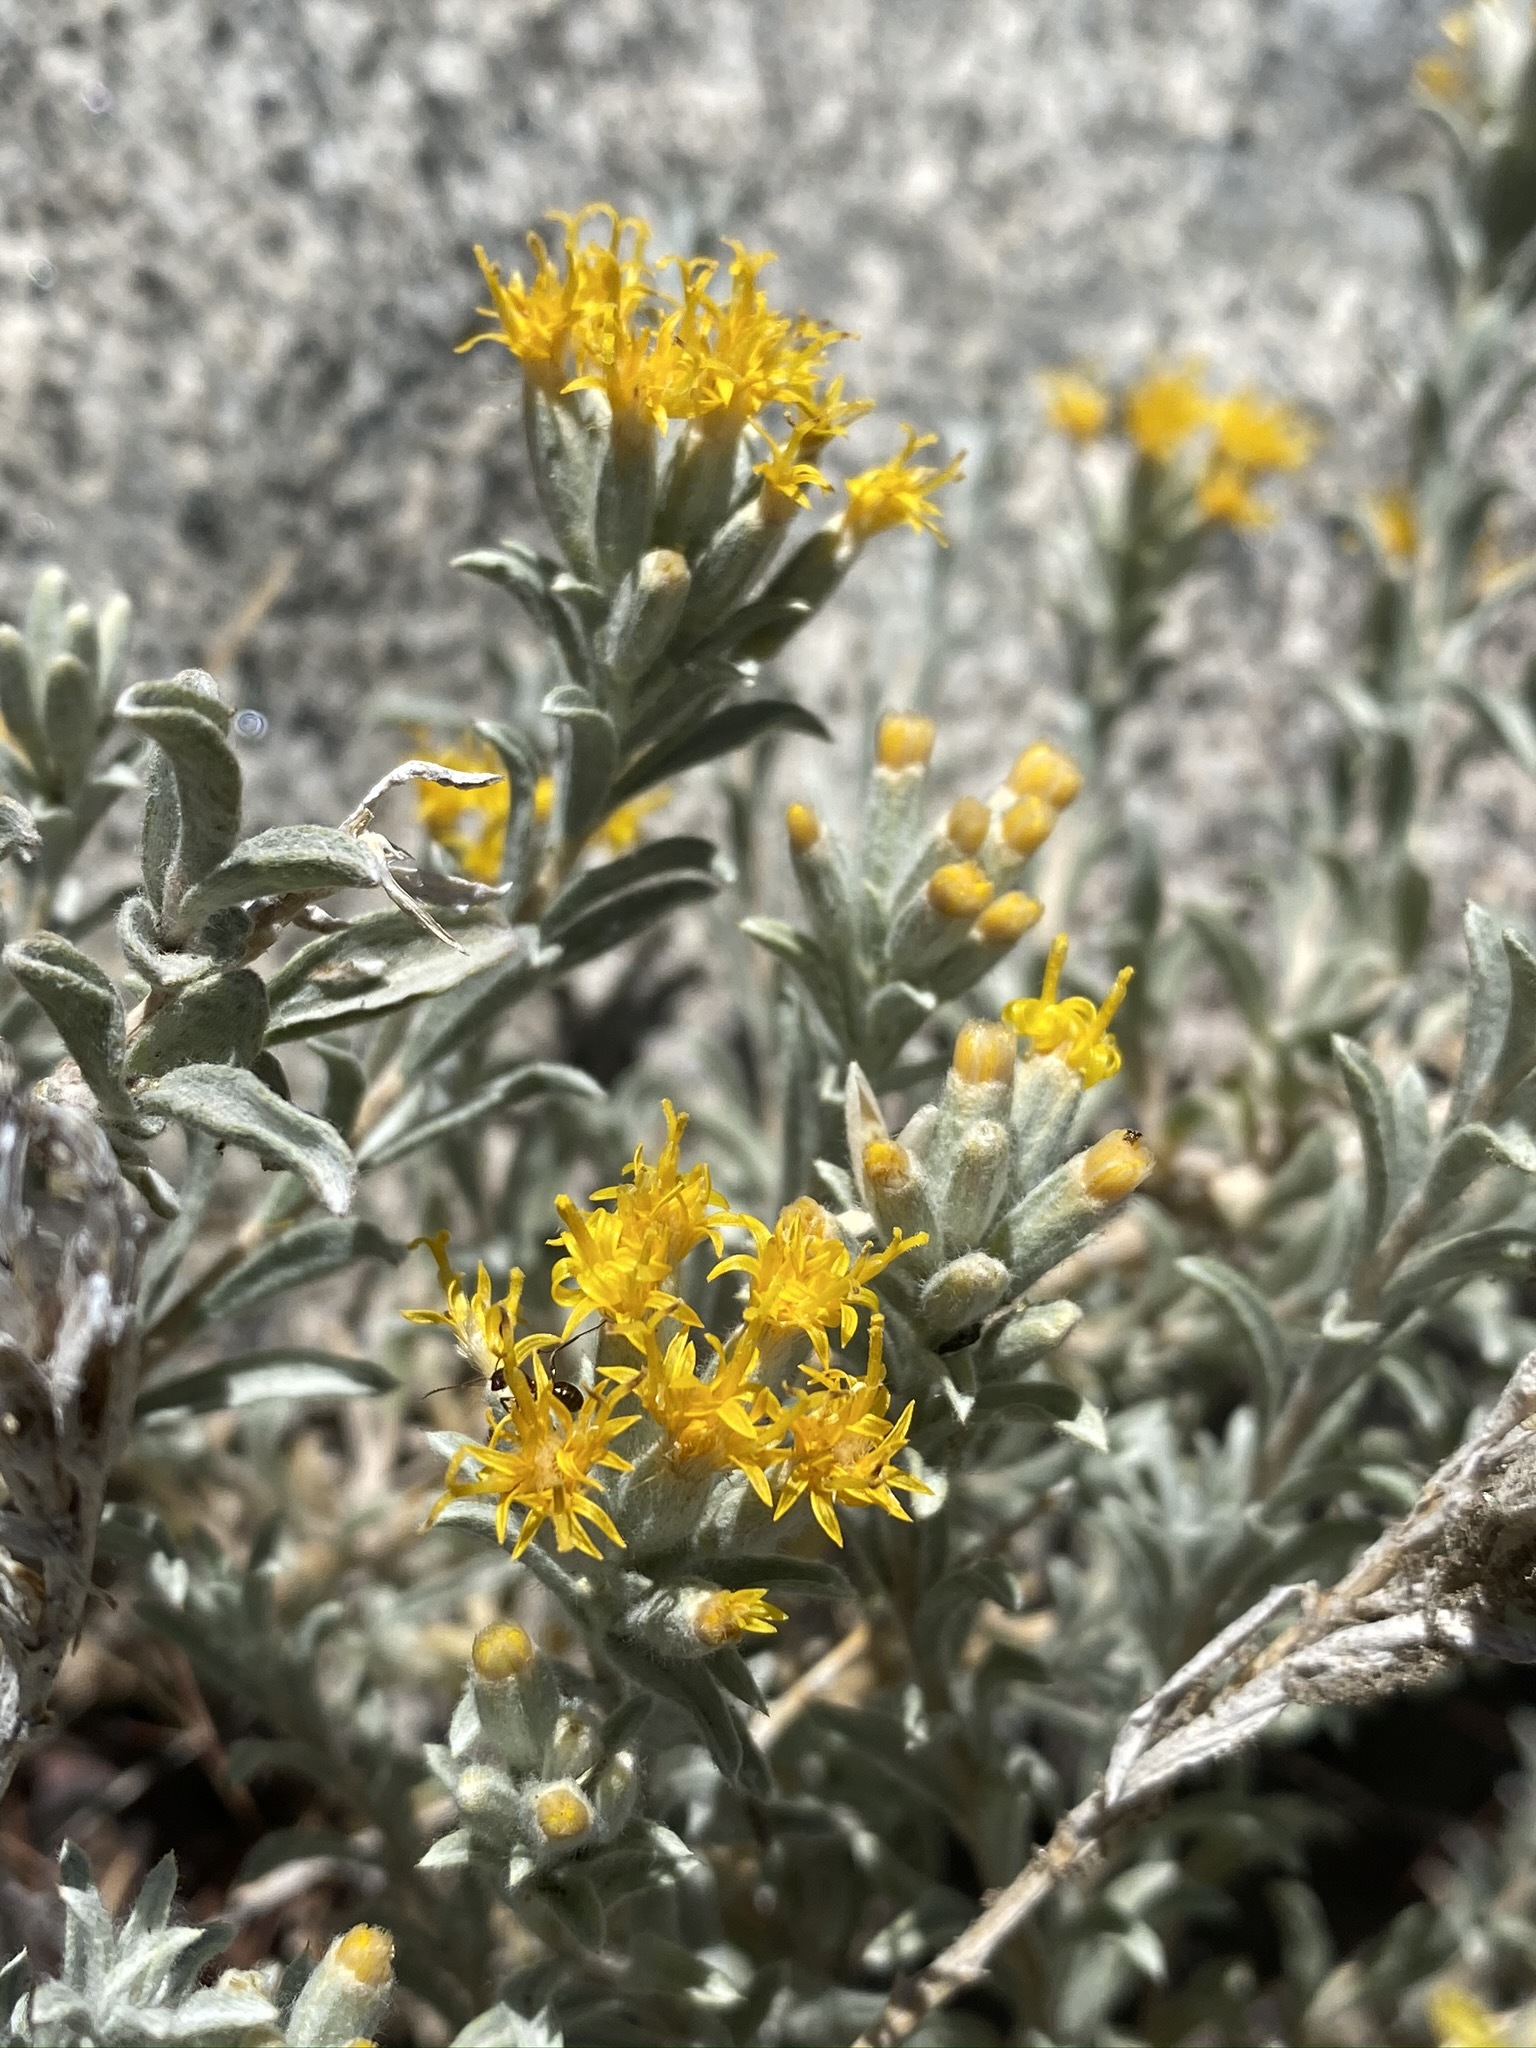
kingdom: Plantae
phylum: Tracheophyta
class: Magnoliopsida
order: Asterales
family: Asteraceae
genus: Tetradymia
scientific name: Tetradymia canescens
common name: Spineless horsebrush
